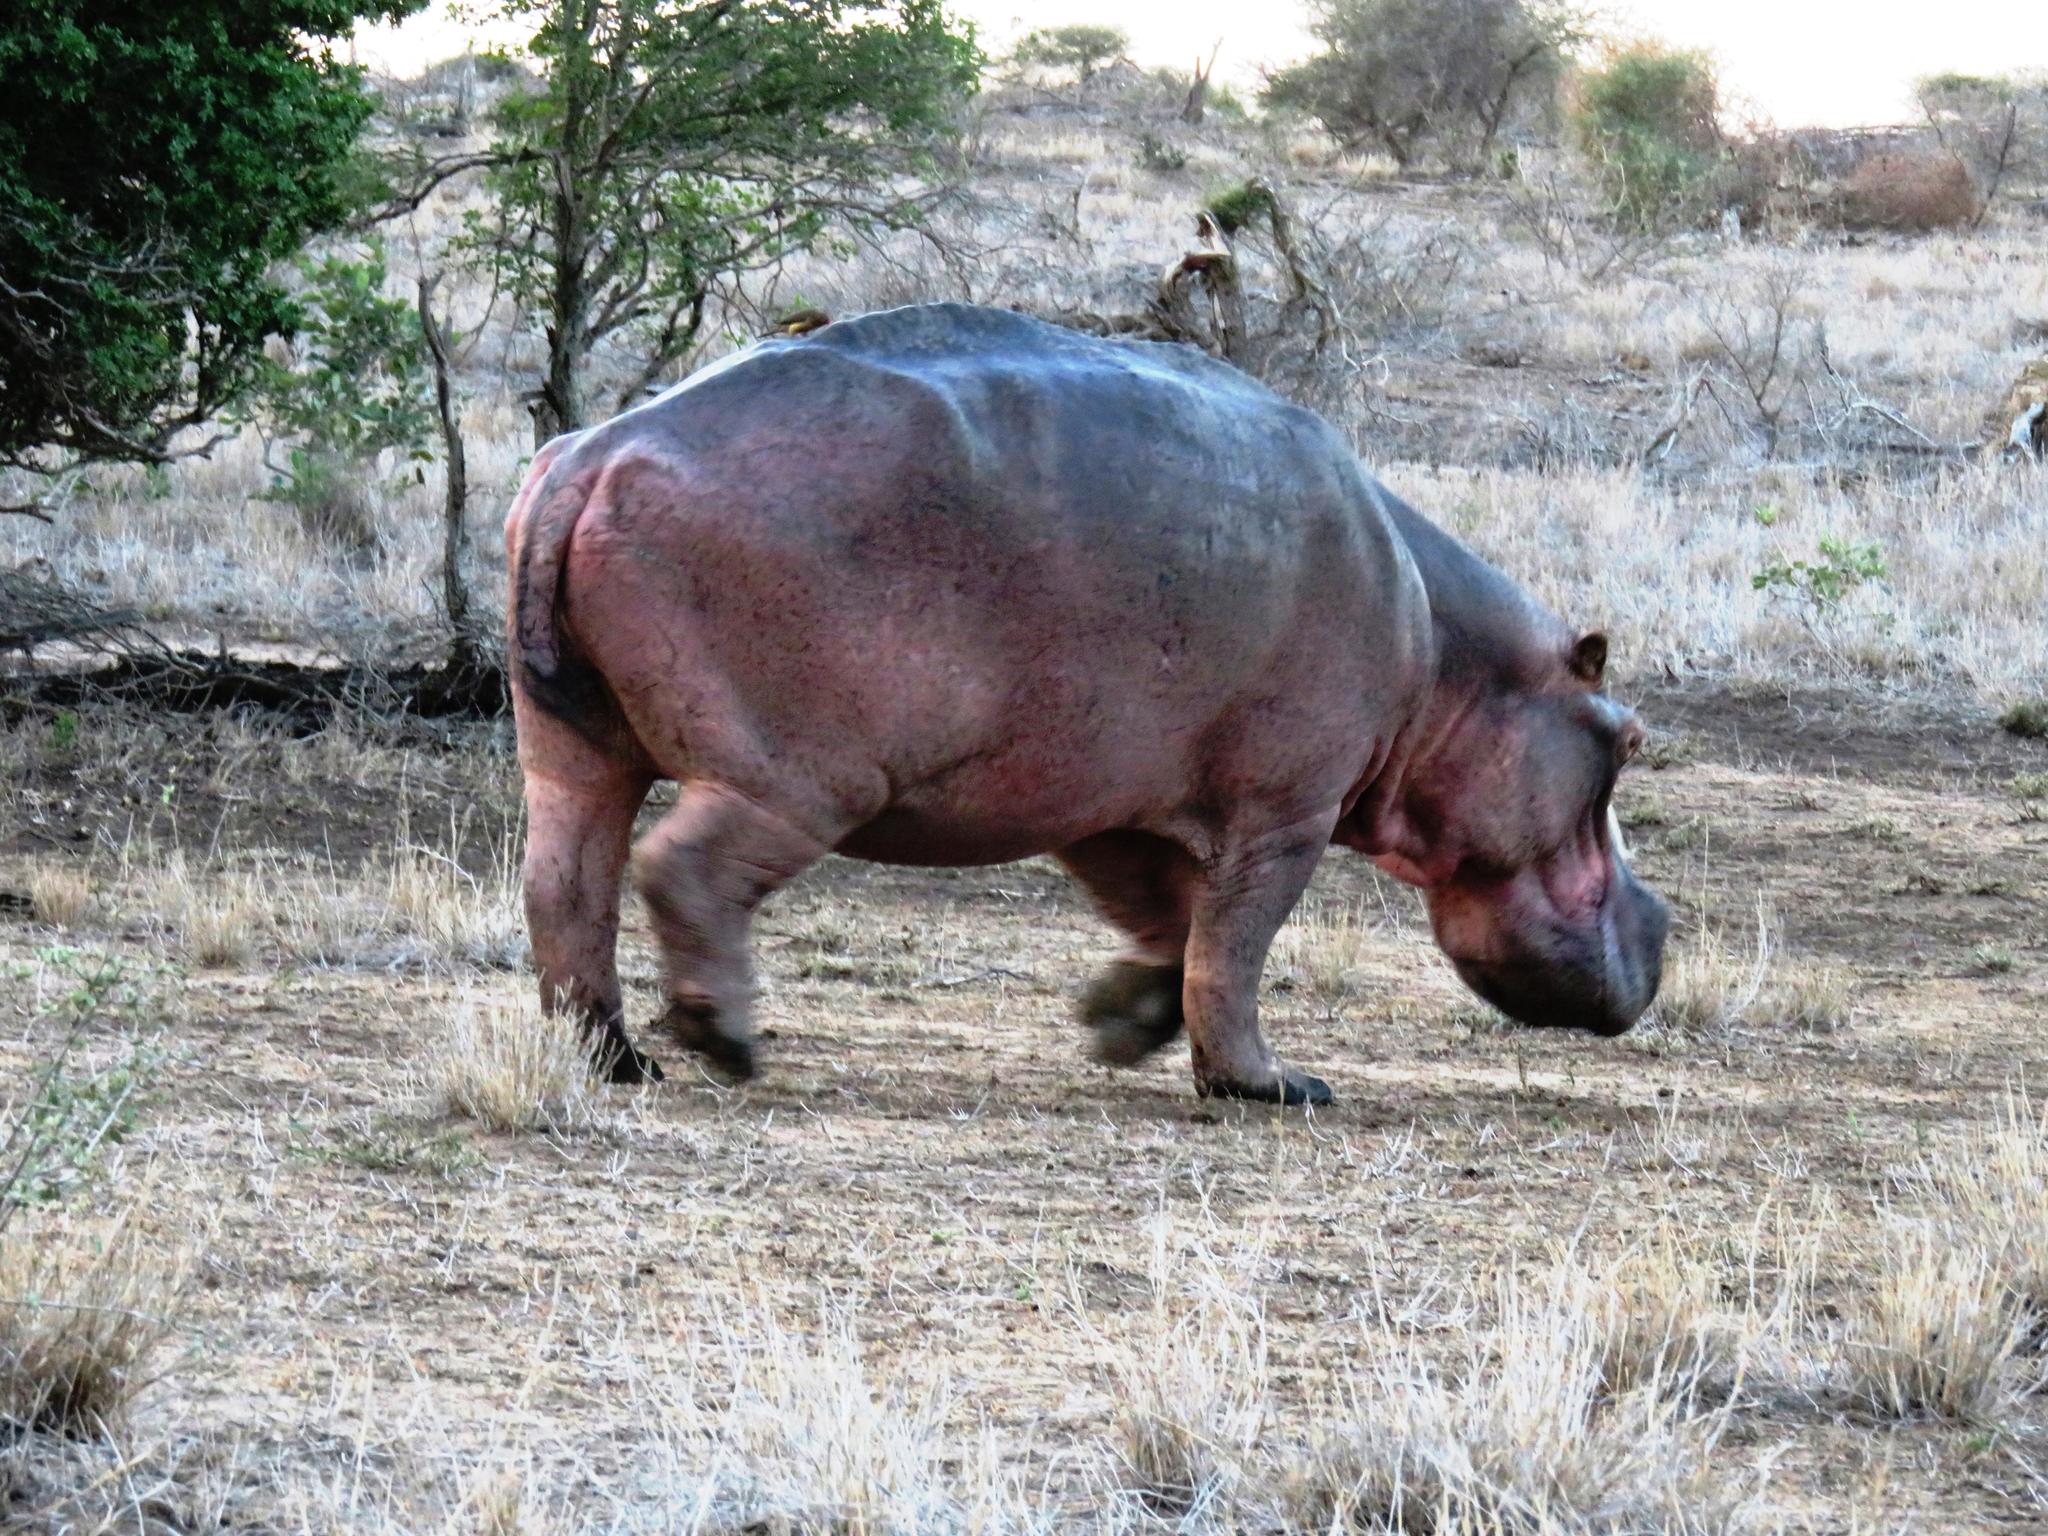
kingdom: Animalia
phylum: Chordata
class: Aves
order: Passeriformes
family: Buphagidae
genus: Buphagus
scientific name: Buphagus erythrorhynchus
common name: Red-billed oxpecker
